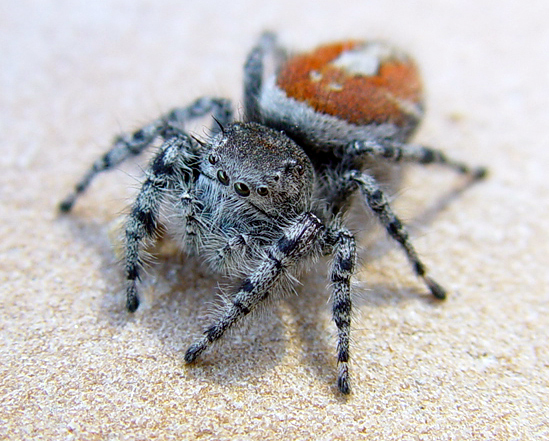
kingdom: Animalia
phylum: Arthropoda
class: Arachnida
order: Araneae
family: Salticidae
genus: Phidippus
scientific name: Phidippus adumbratus
